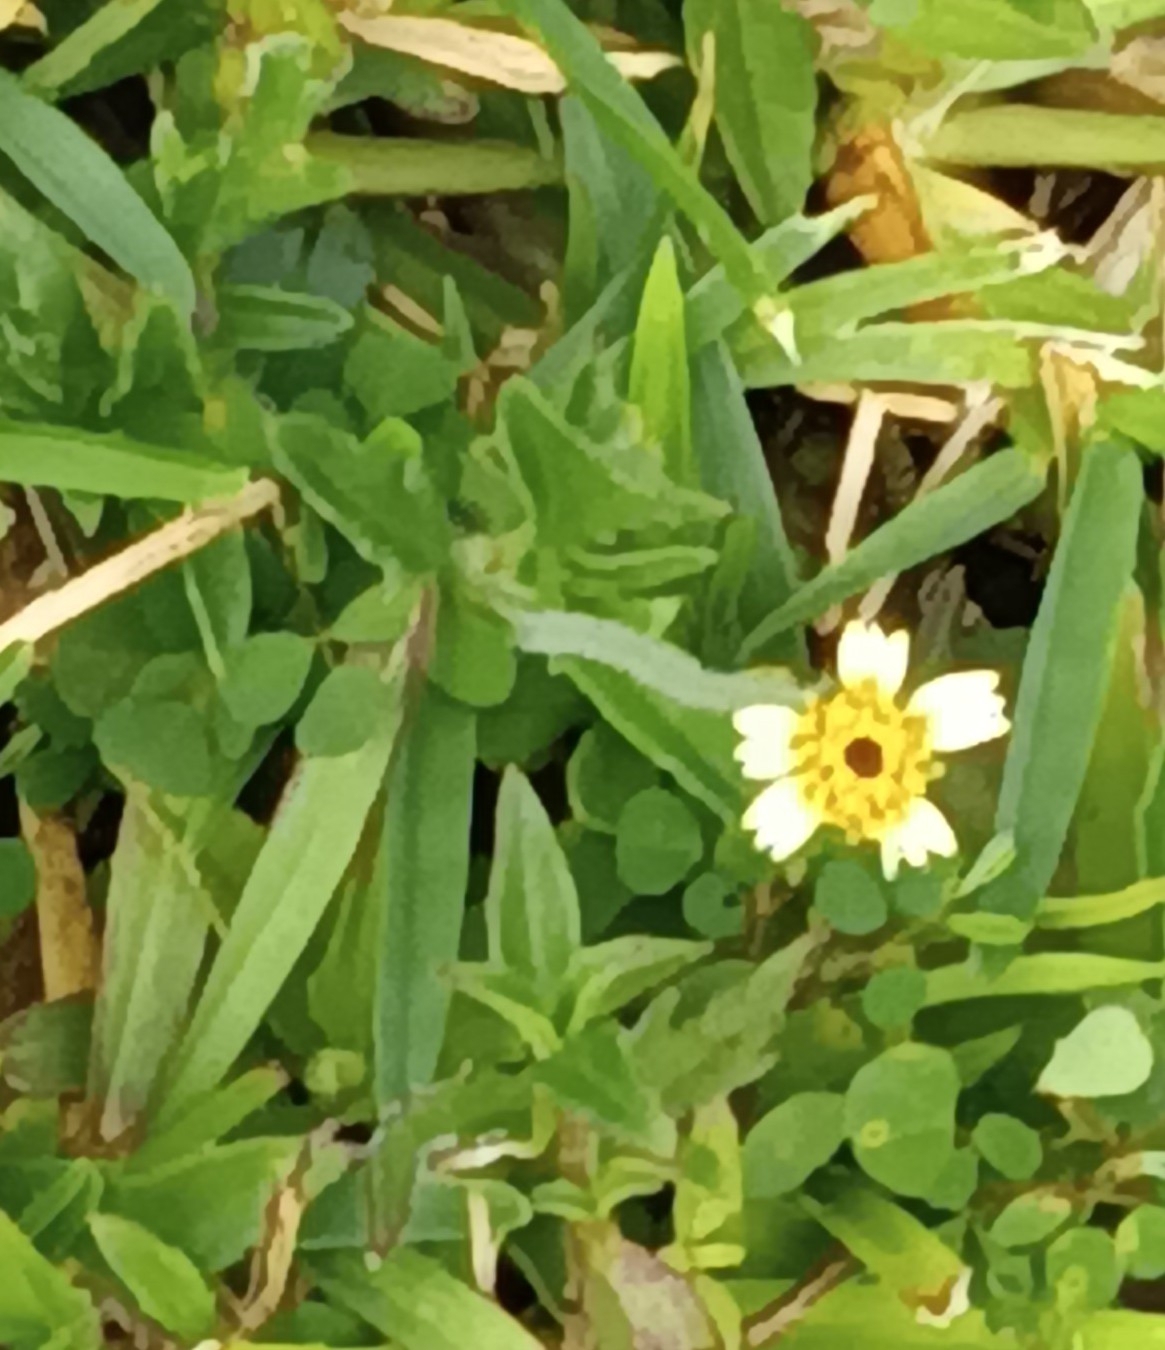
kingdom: Plantae
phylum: Tracheophyta
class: Magnoliopsida
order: Asterales
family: Asteraceae
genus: Tridax
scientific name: Tridax procumbens
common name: Coatbuttons
